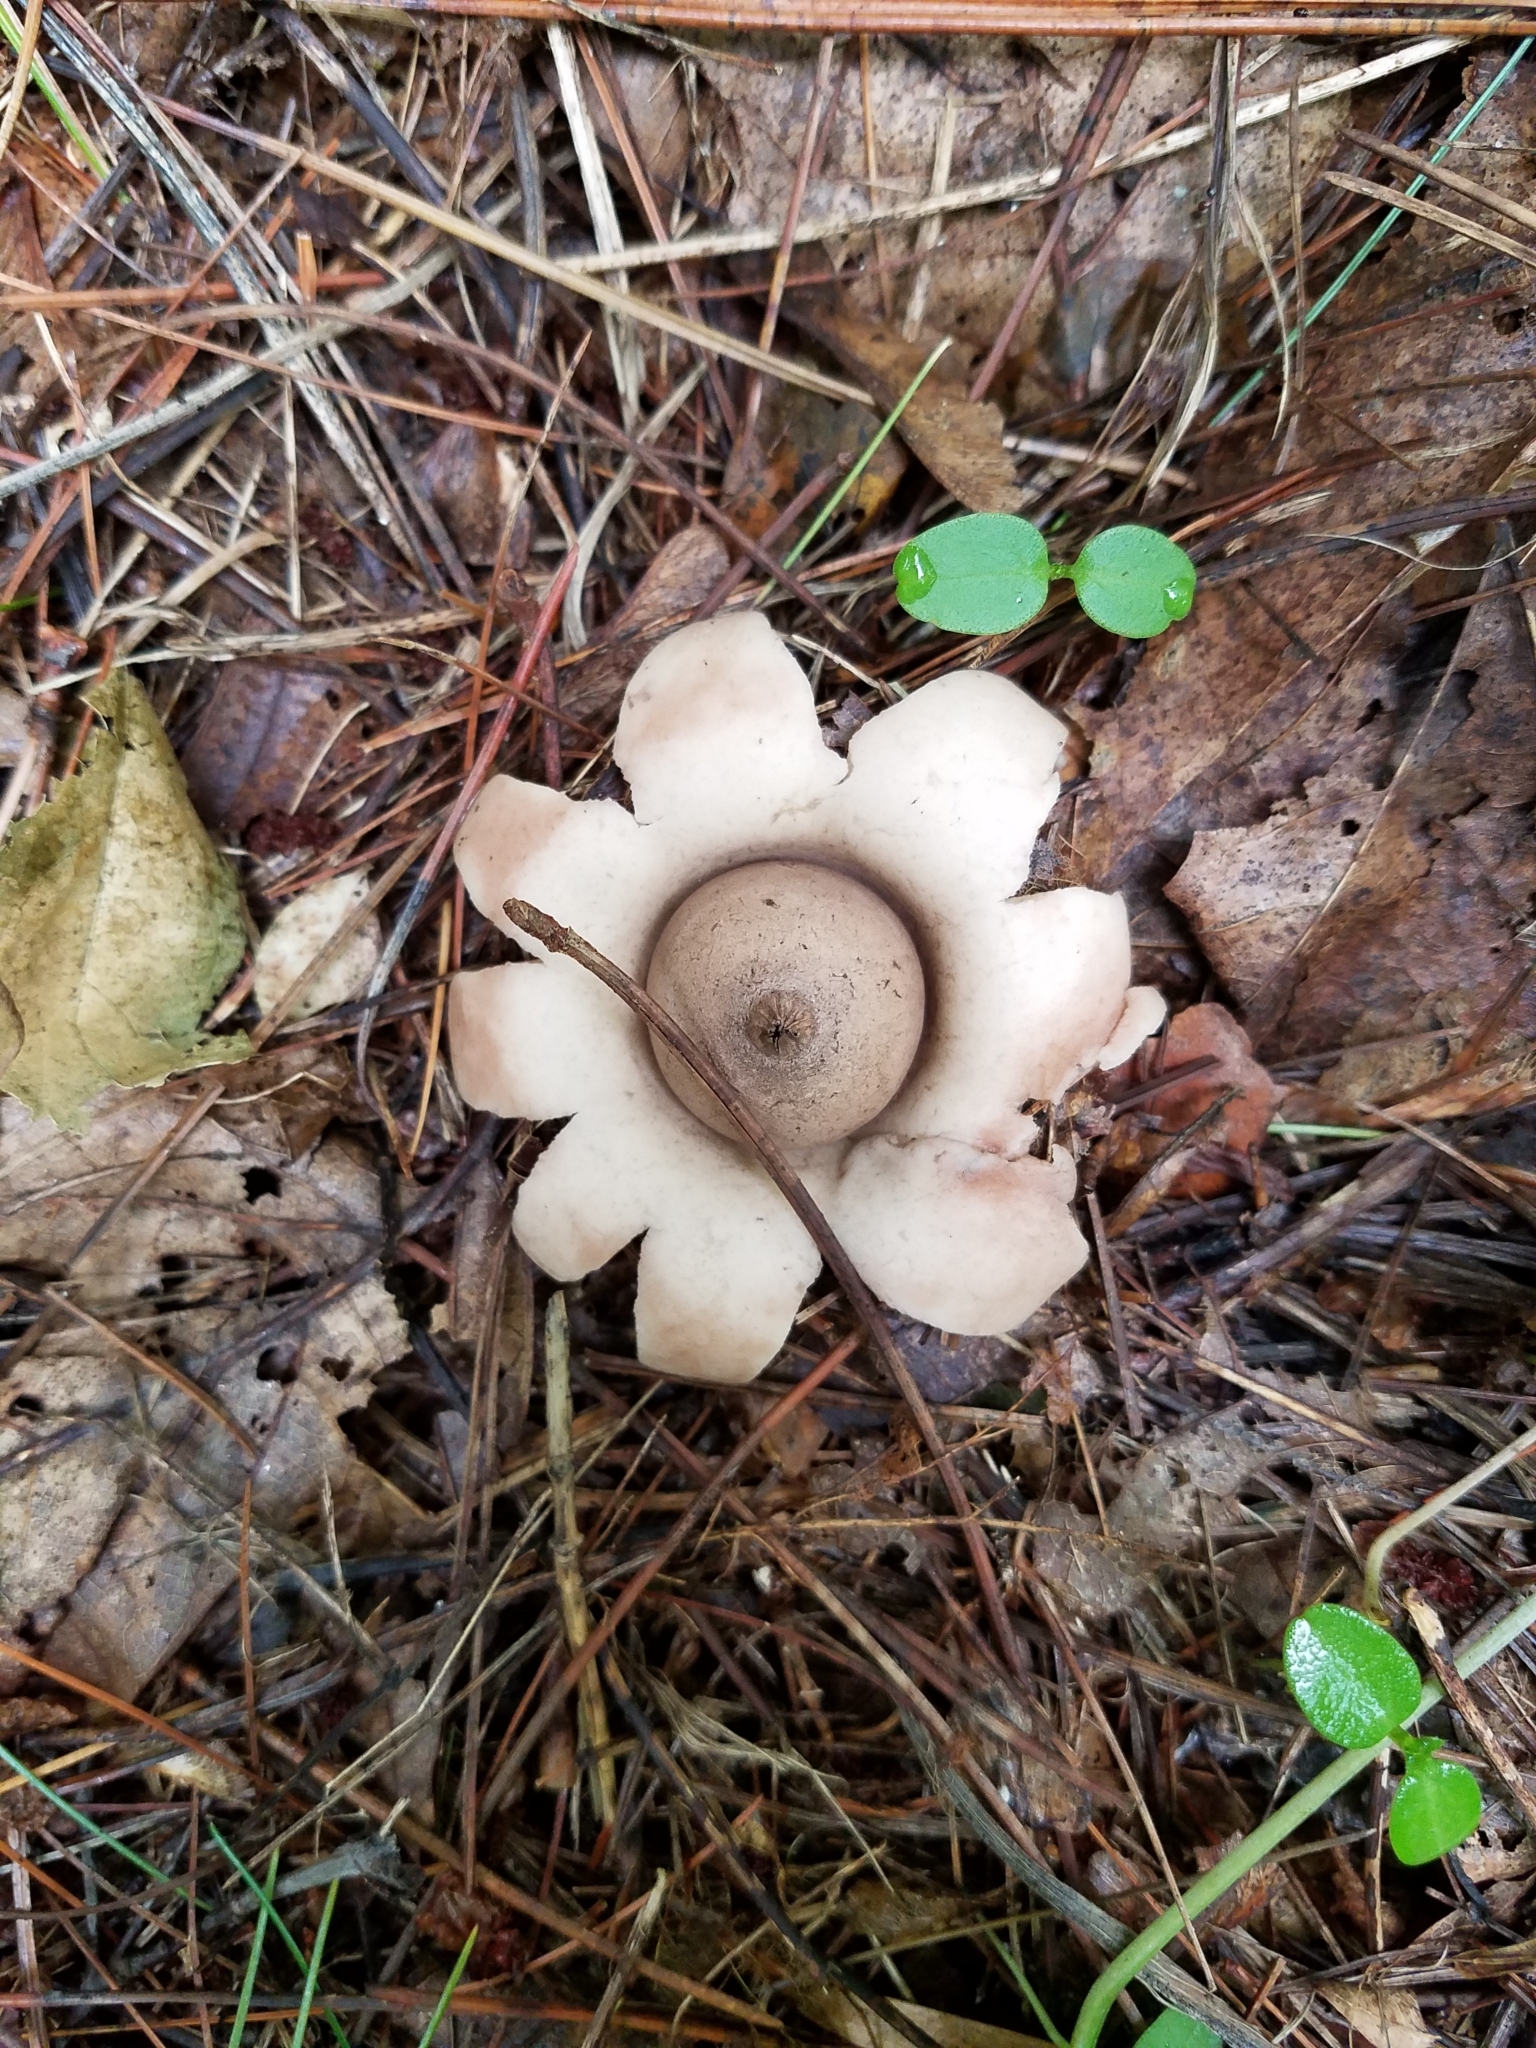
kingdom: Fungi
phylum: Basidiomycota
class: Agaricomycetes
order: Geastrales
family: Geastraceae
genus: Geastrum
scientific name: Geastrum saccatum
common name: Rounded earthstar
